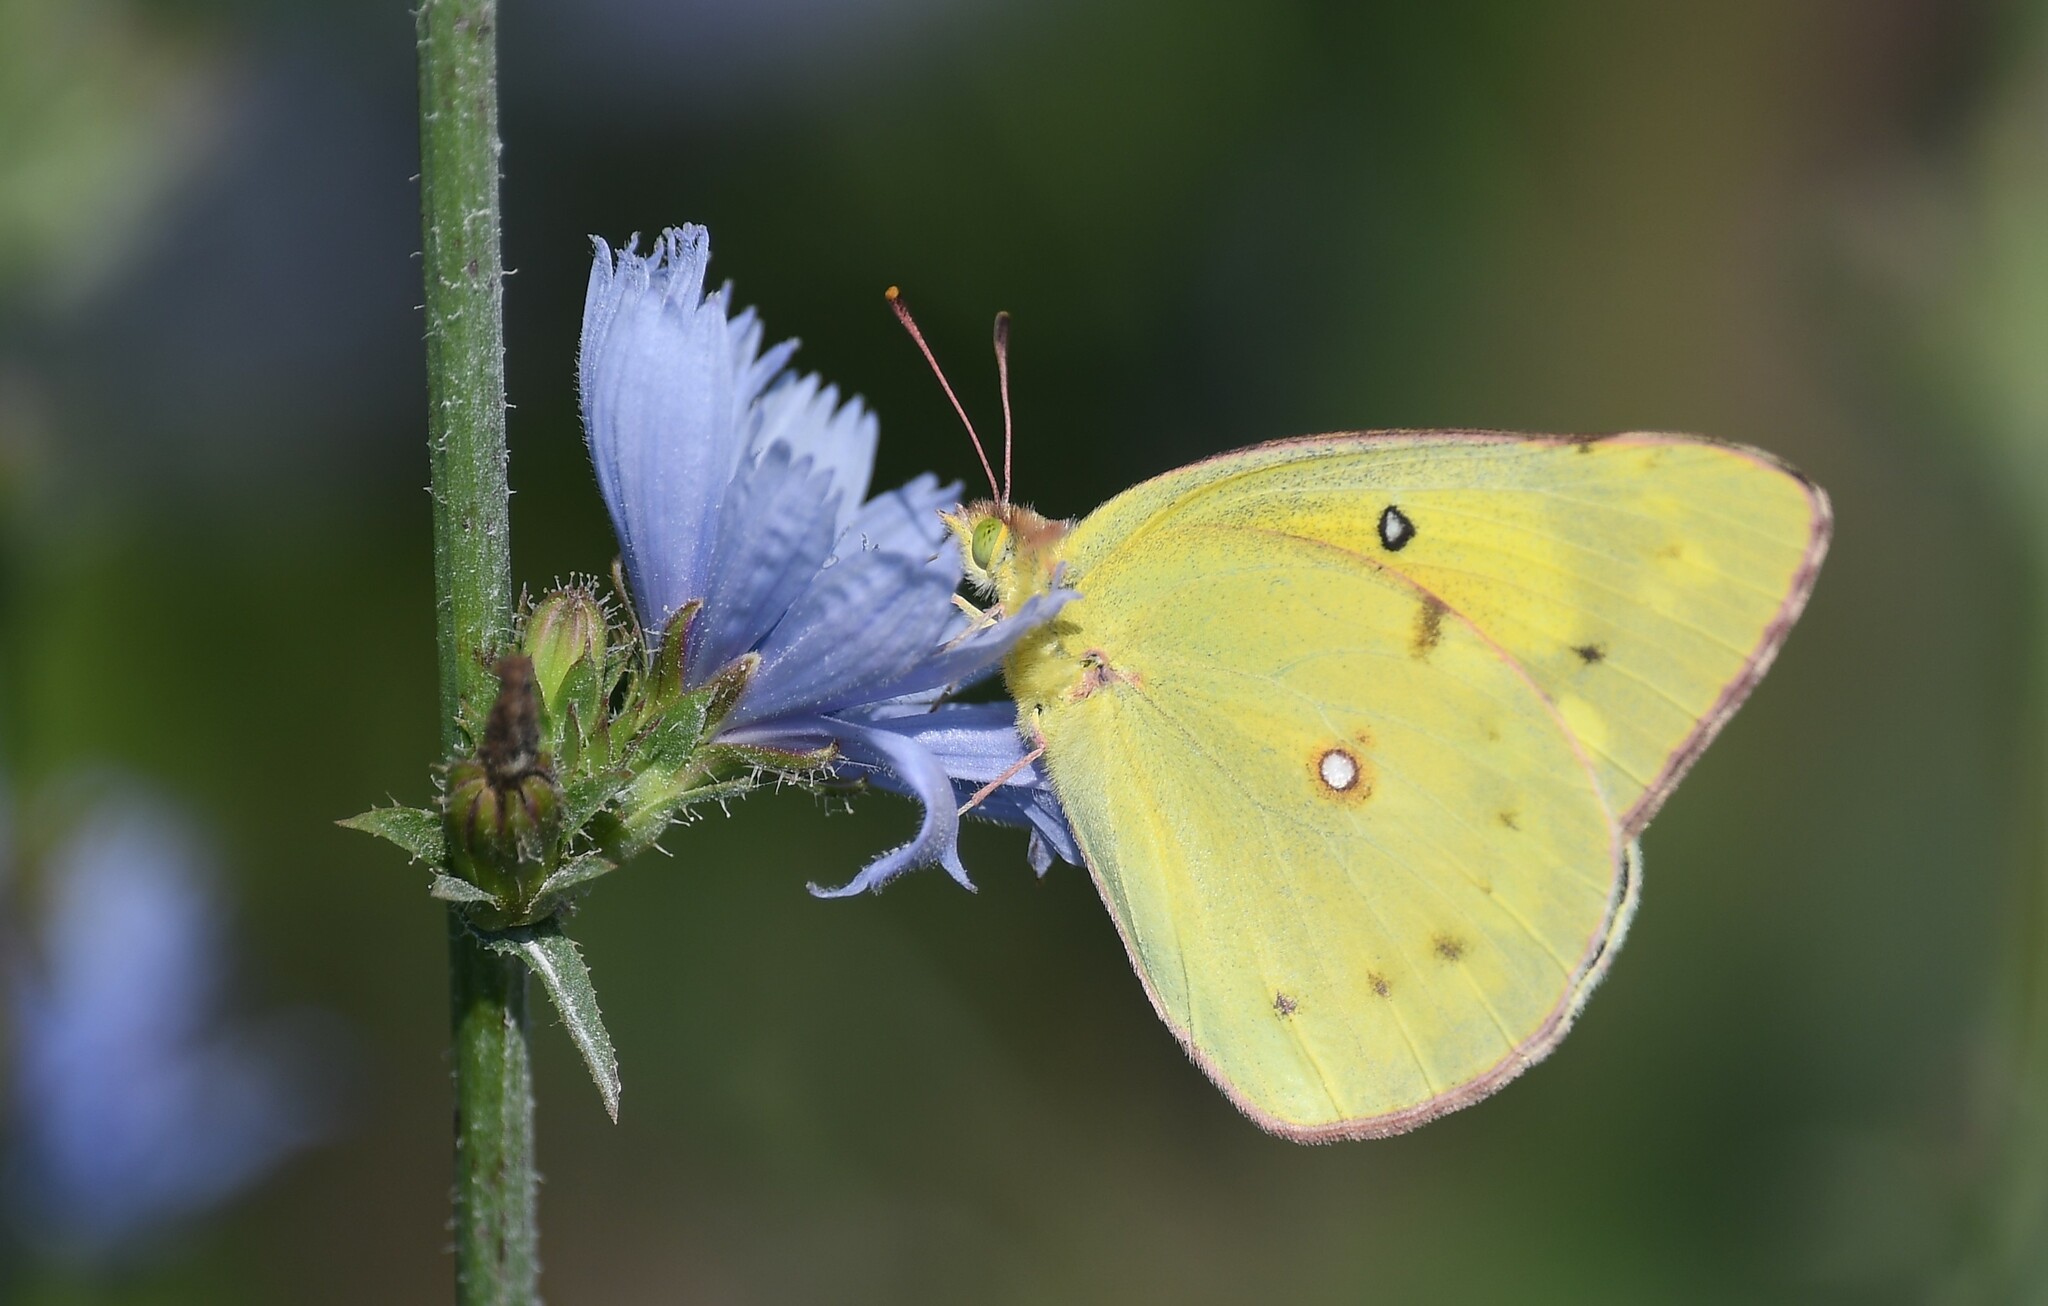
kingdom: Animalia
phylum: Arthropoda
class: Insecta
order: Lepidoptera
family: Pieridae
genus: Colias
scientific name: Colias philodice
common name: Clouded sulphur
